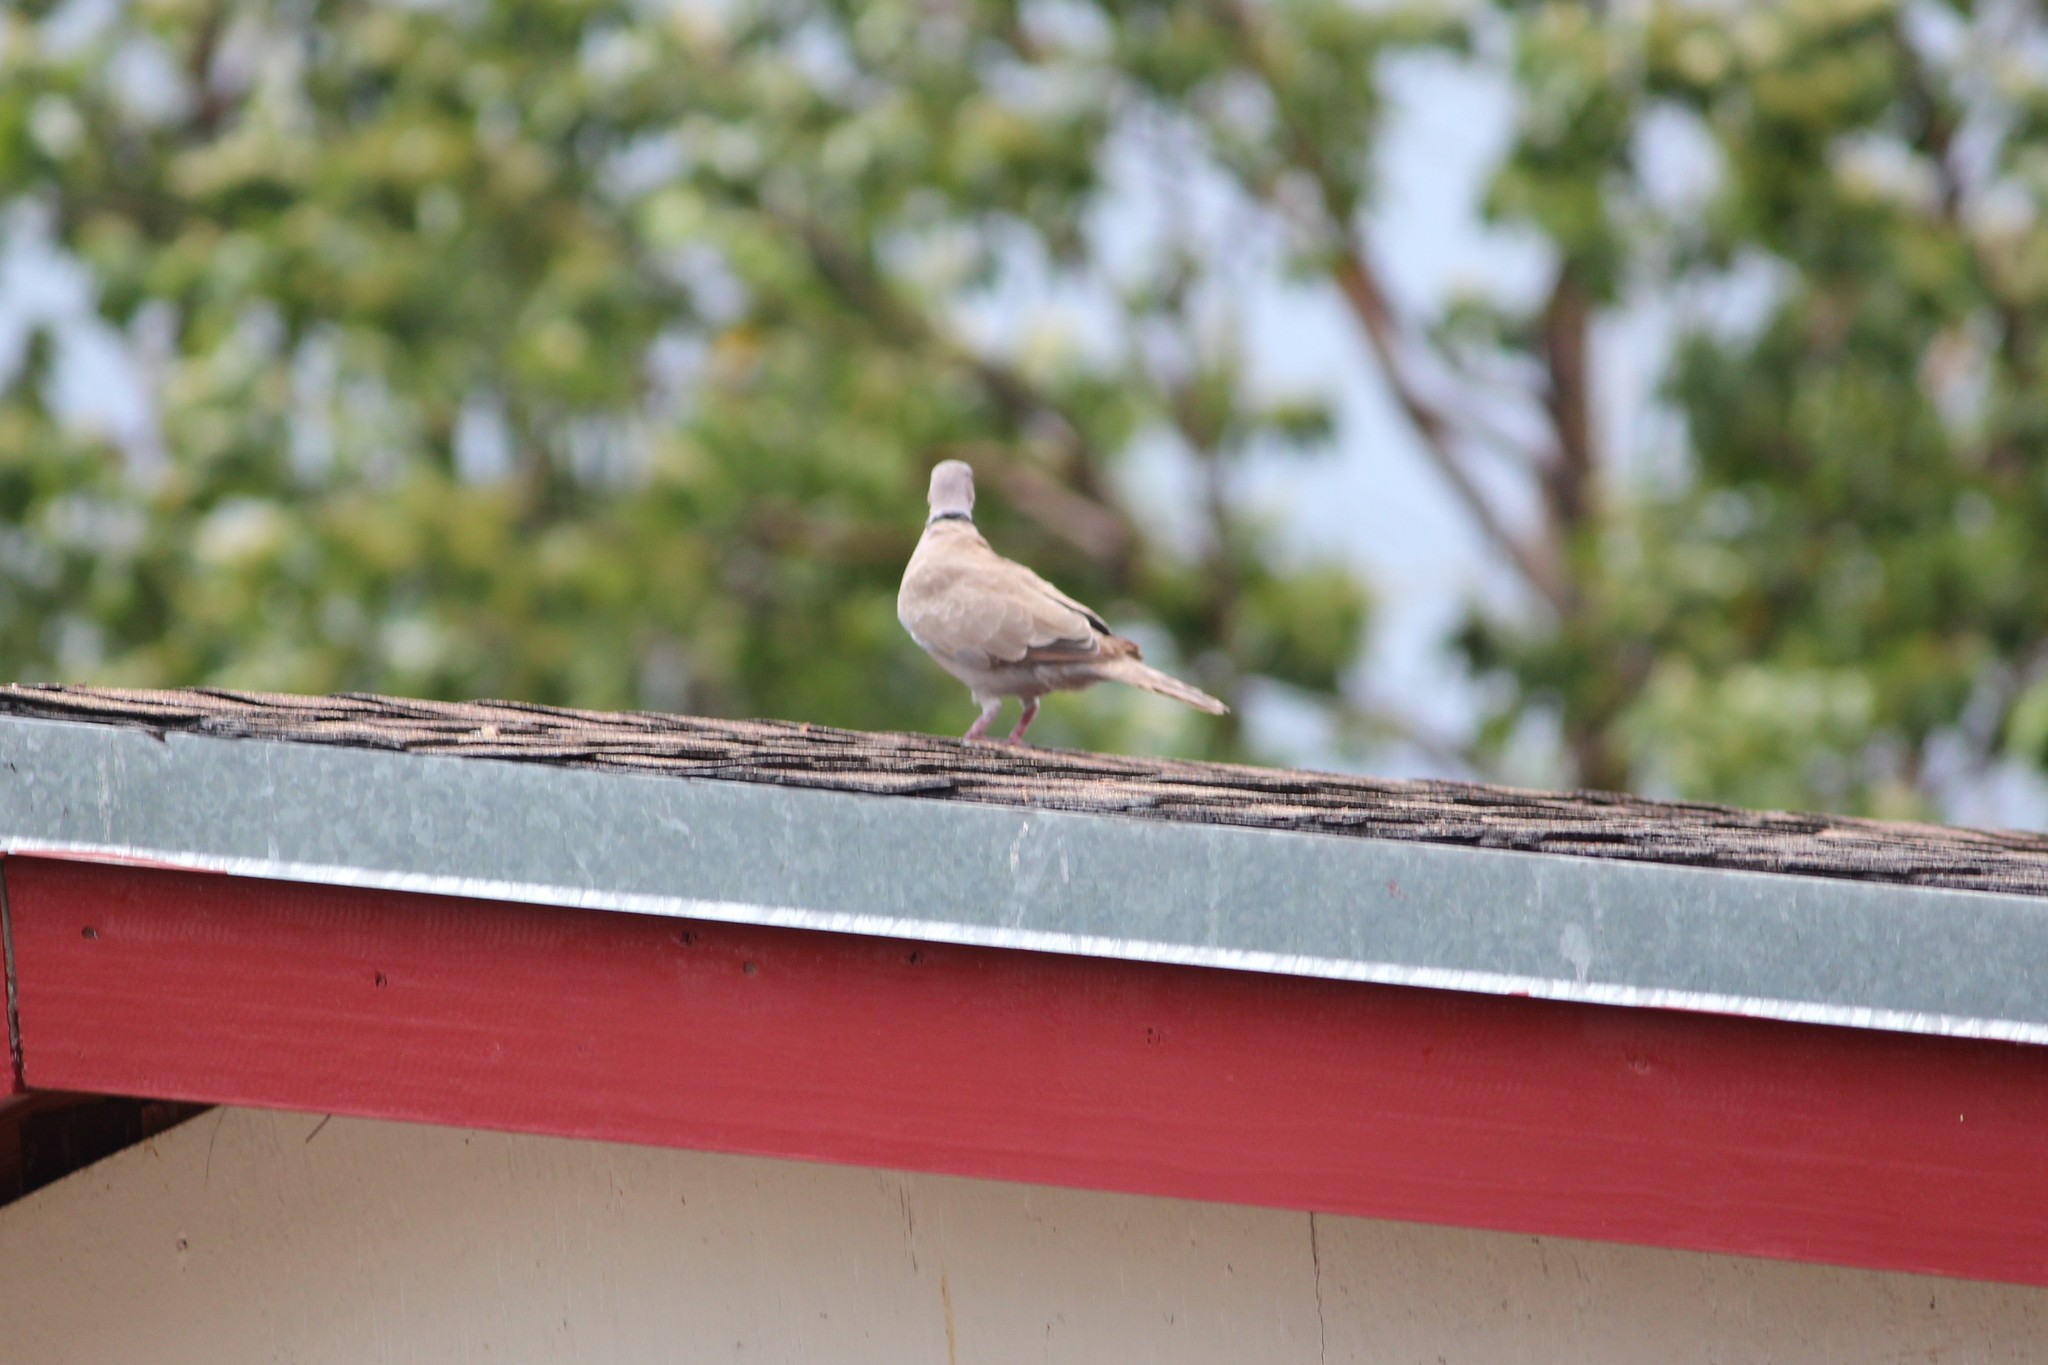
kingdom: Animalia
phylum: Chordata
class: Aves
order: Columbiformes
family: Columbidae
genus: Streptopelia
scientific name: Streptopelia decaocto
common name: Eurasian collared dove
